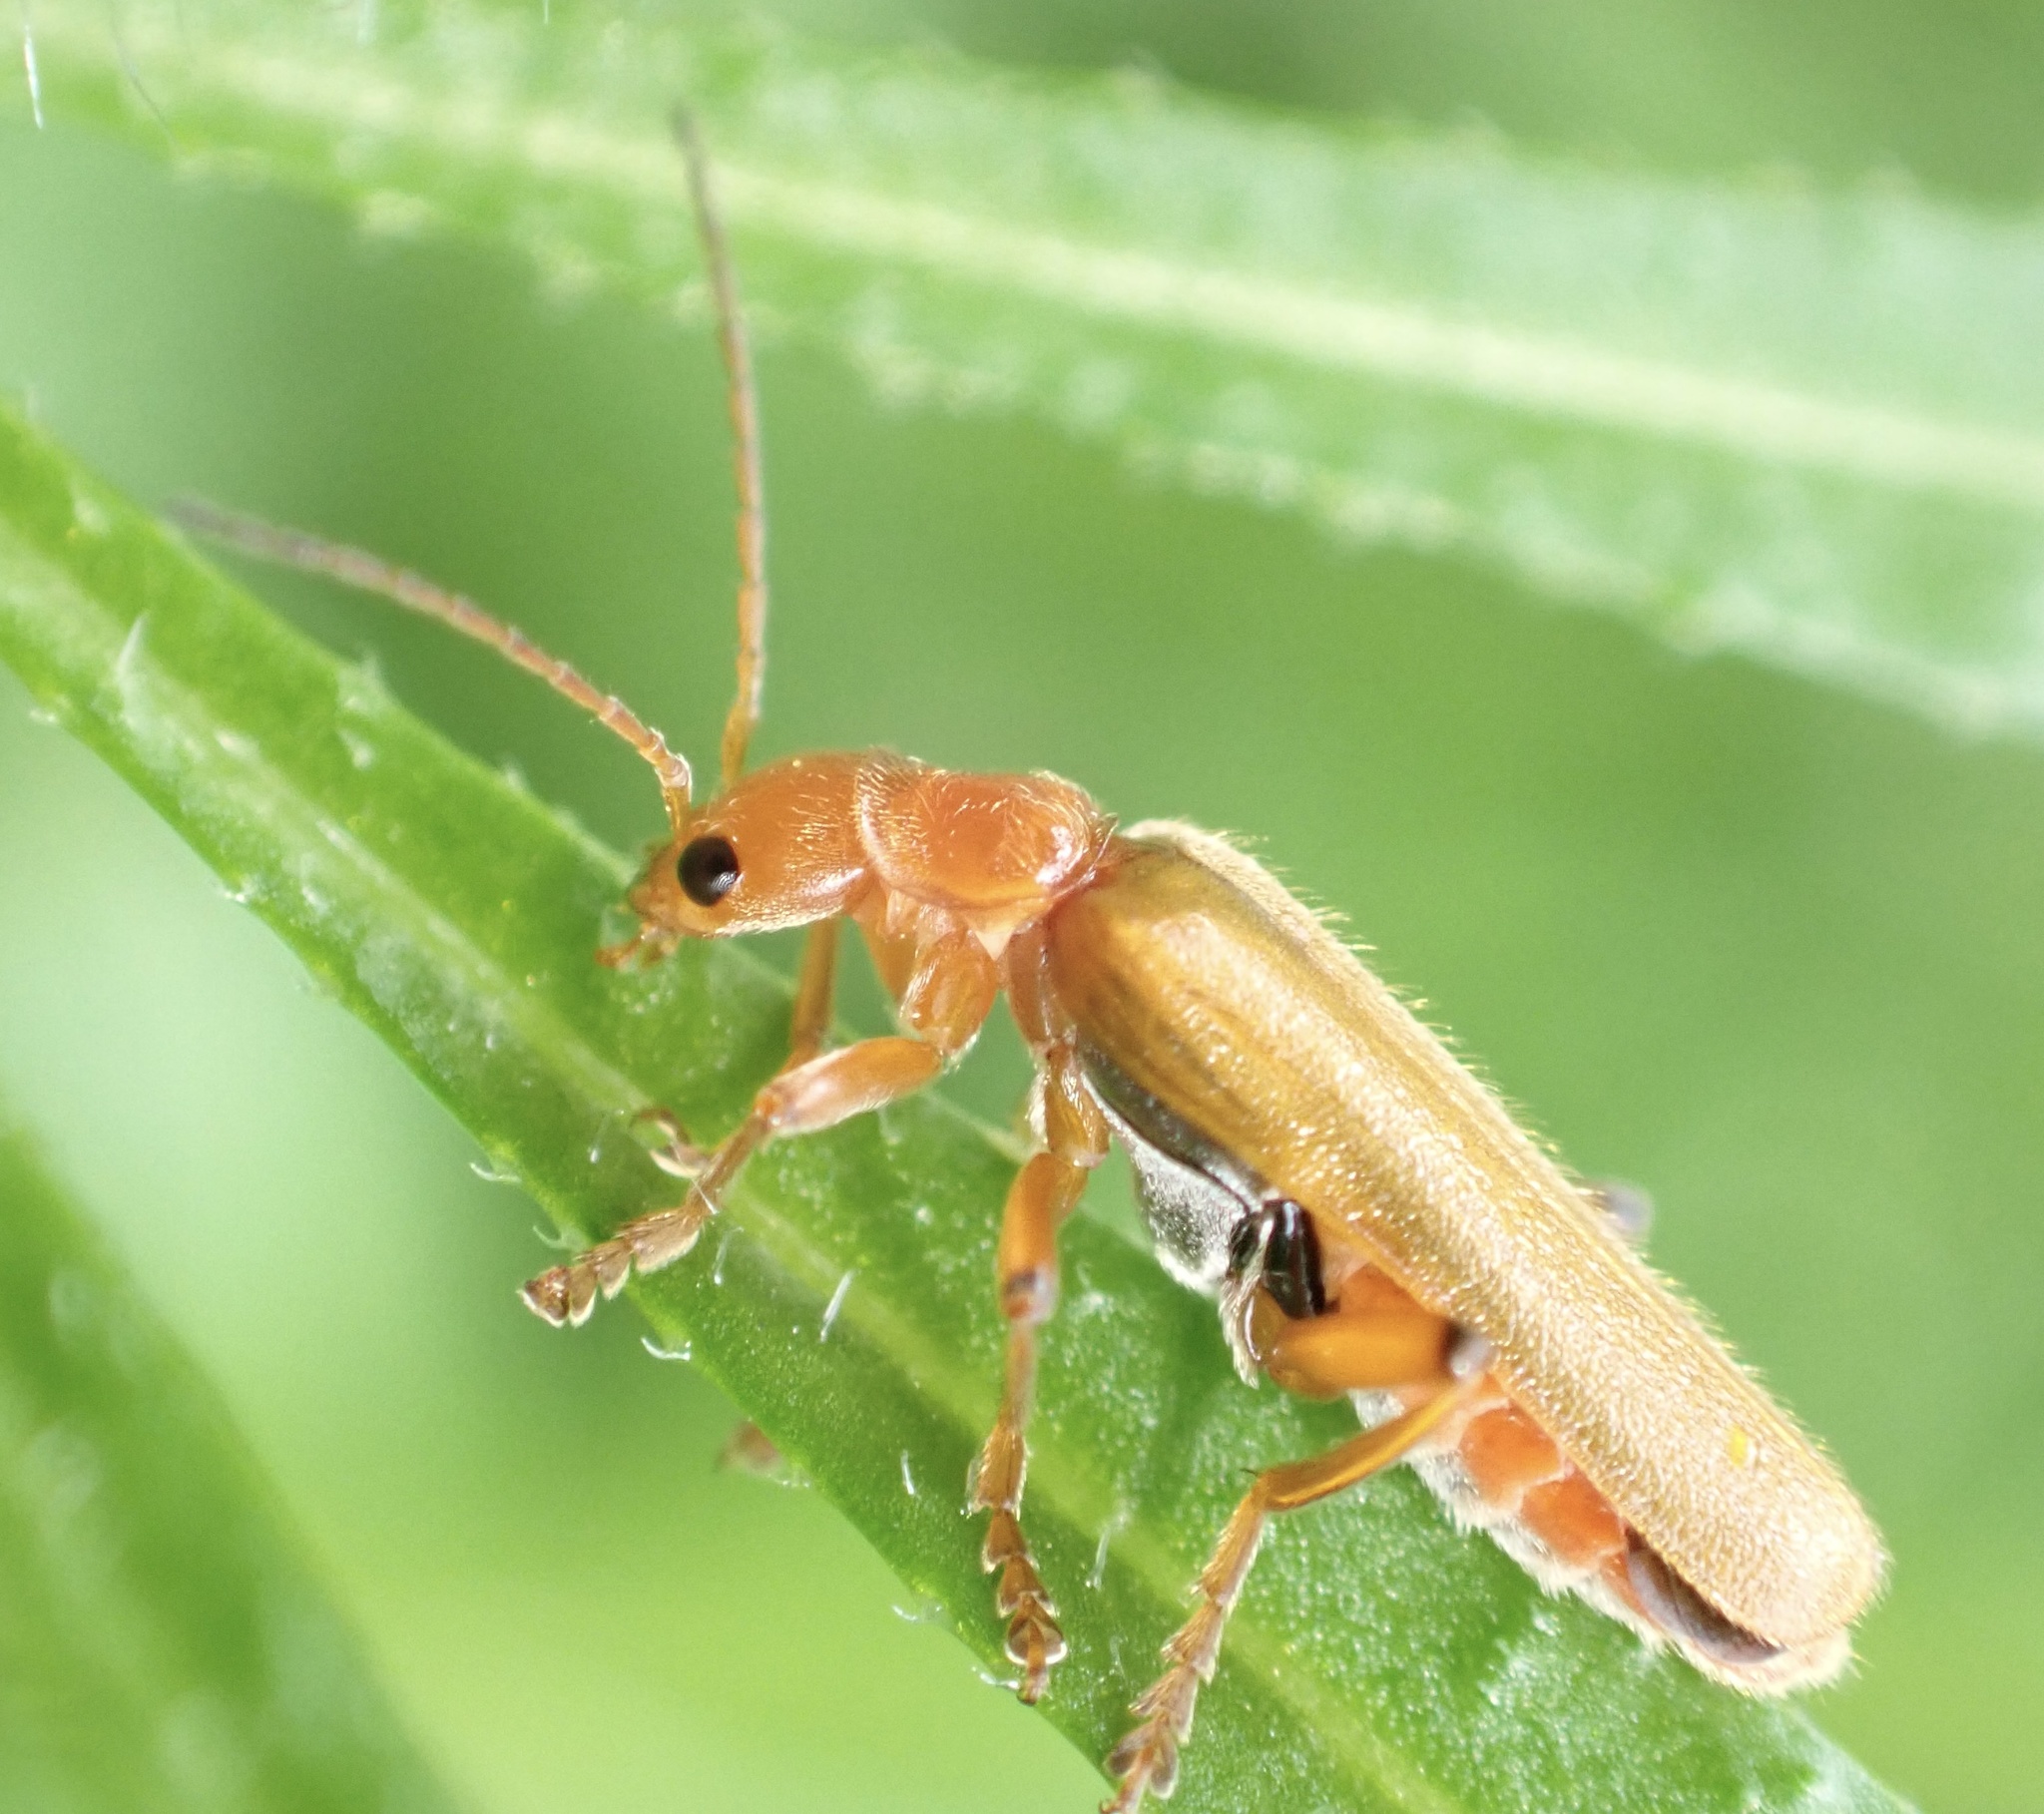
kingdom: Animalia
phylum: Arthropoda
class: Insecta
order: Coleoptera
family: Cantharidae
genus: Cantharis
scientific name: Cantharis cryptica
